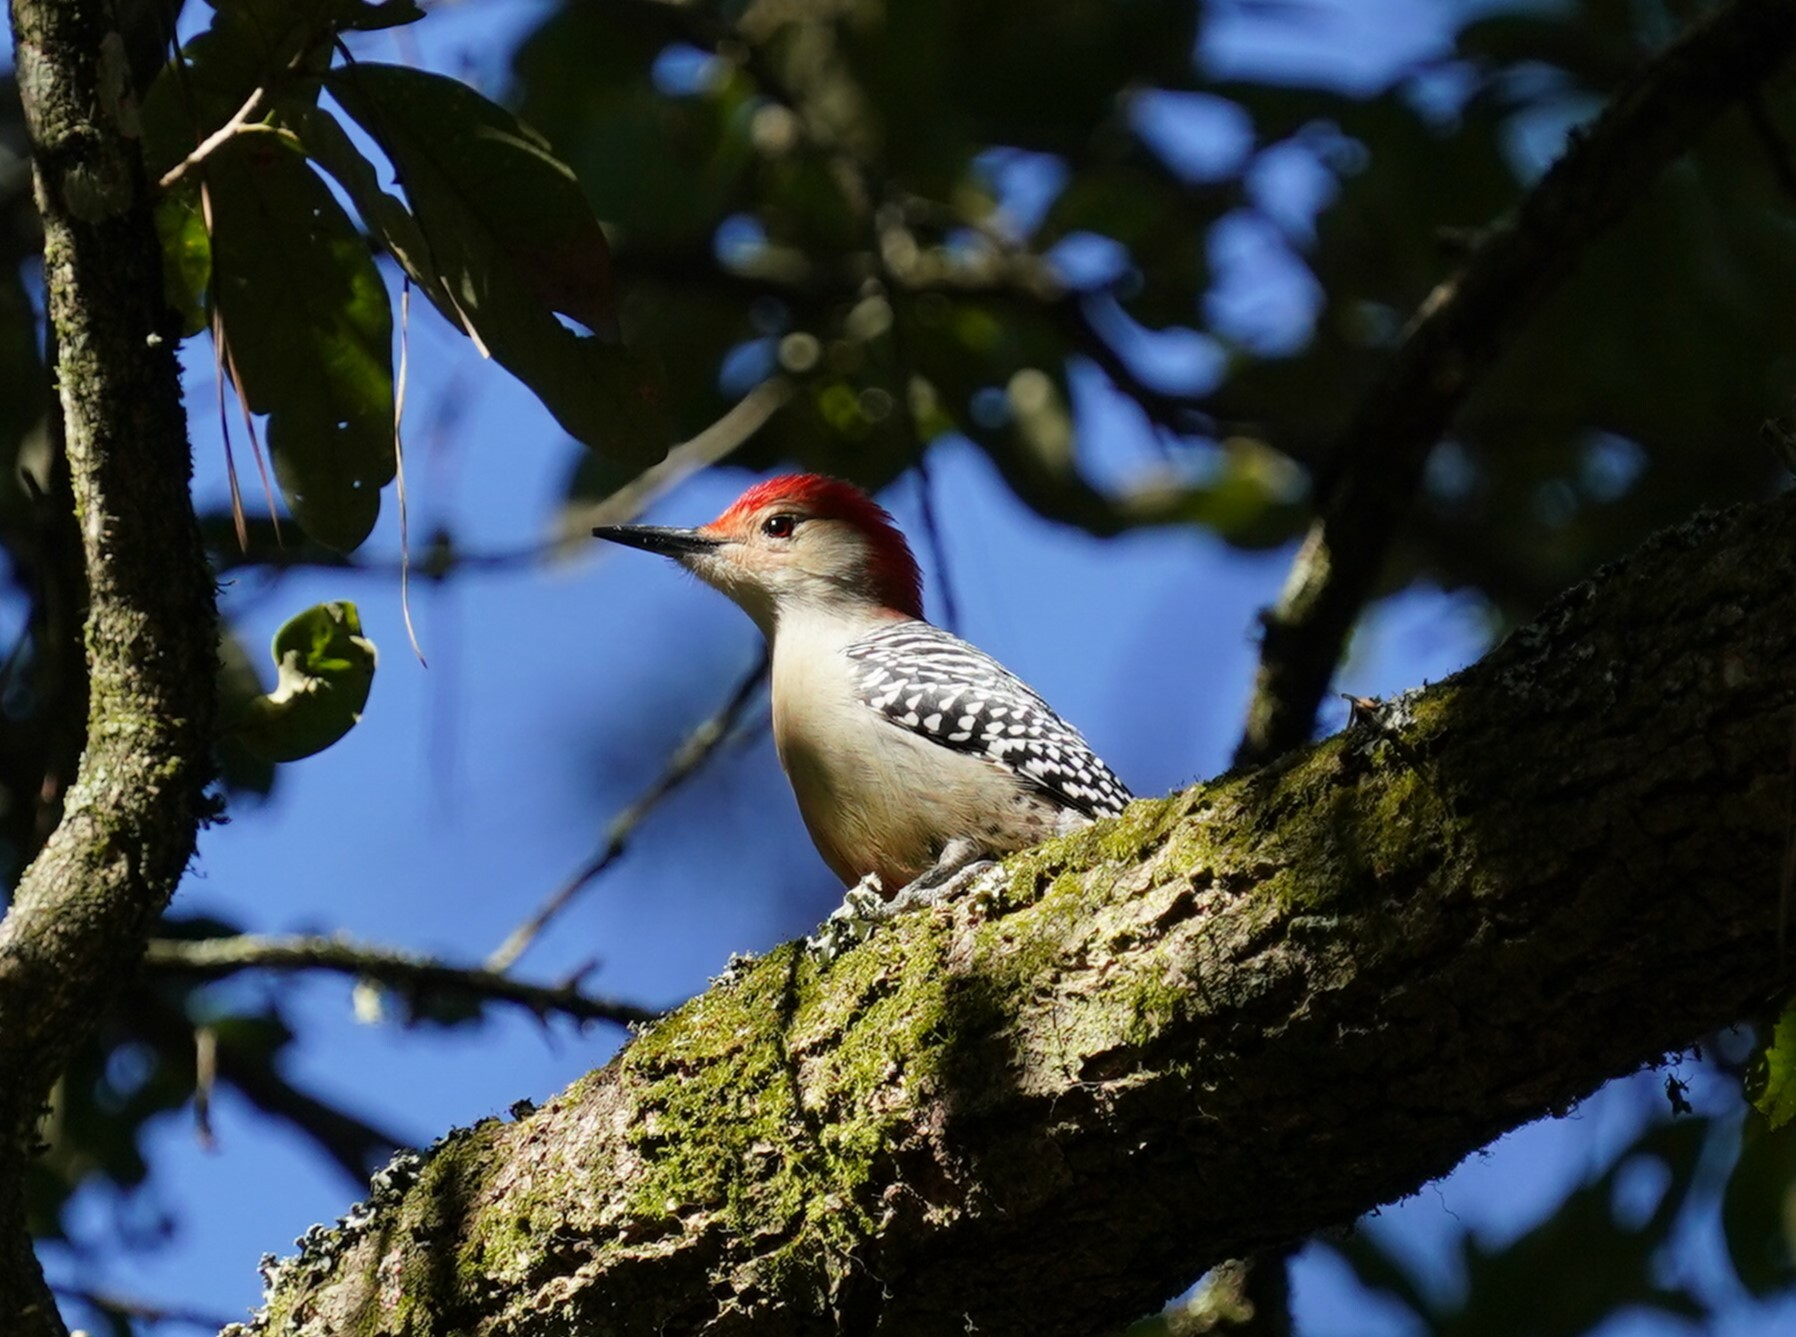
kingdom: Animalia
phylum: Chordata
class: Aves
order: Piciformes
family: Picidae
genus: Melanerpes
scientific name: Melanerpes carolinus
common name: Red-bellied woodpecker
